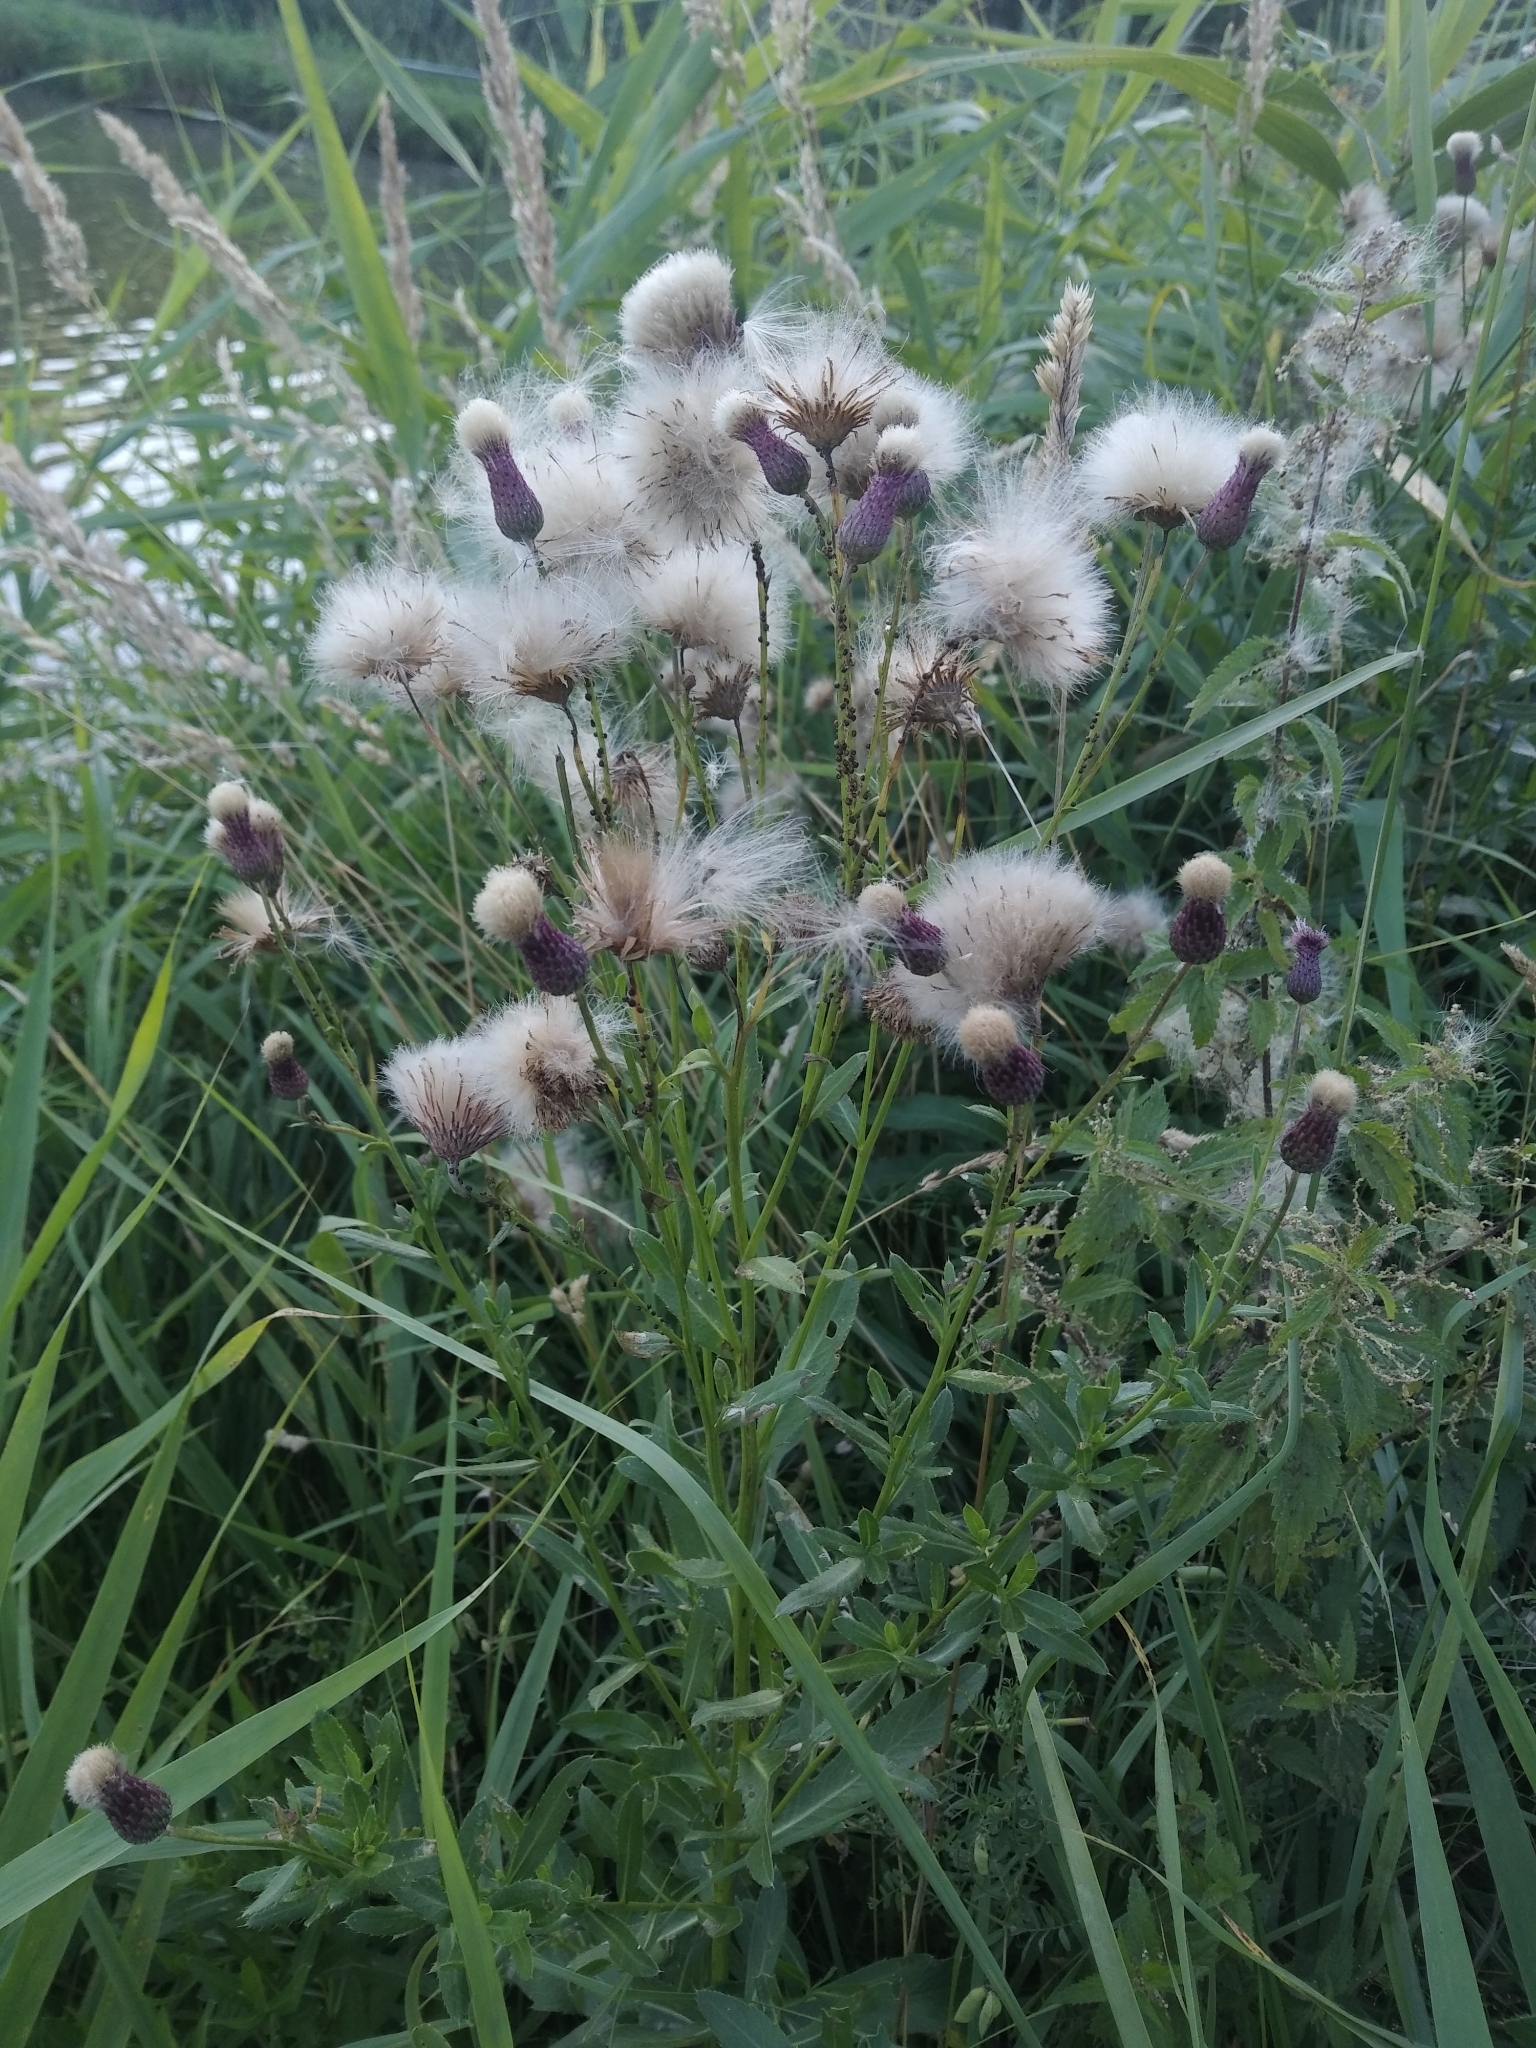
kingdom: Plantae
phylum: Tracheophyta
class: Magnoliopsida
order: Asterales
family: Asteraceae
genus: Cirsium
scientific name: Cirsium arvense
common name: Creeping thistle
